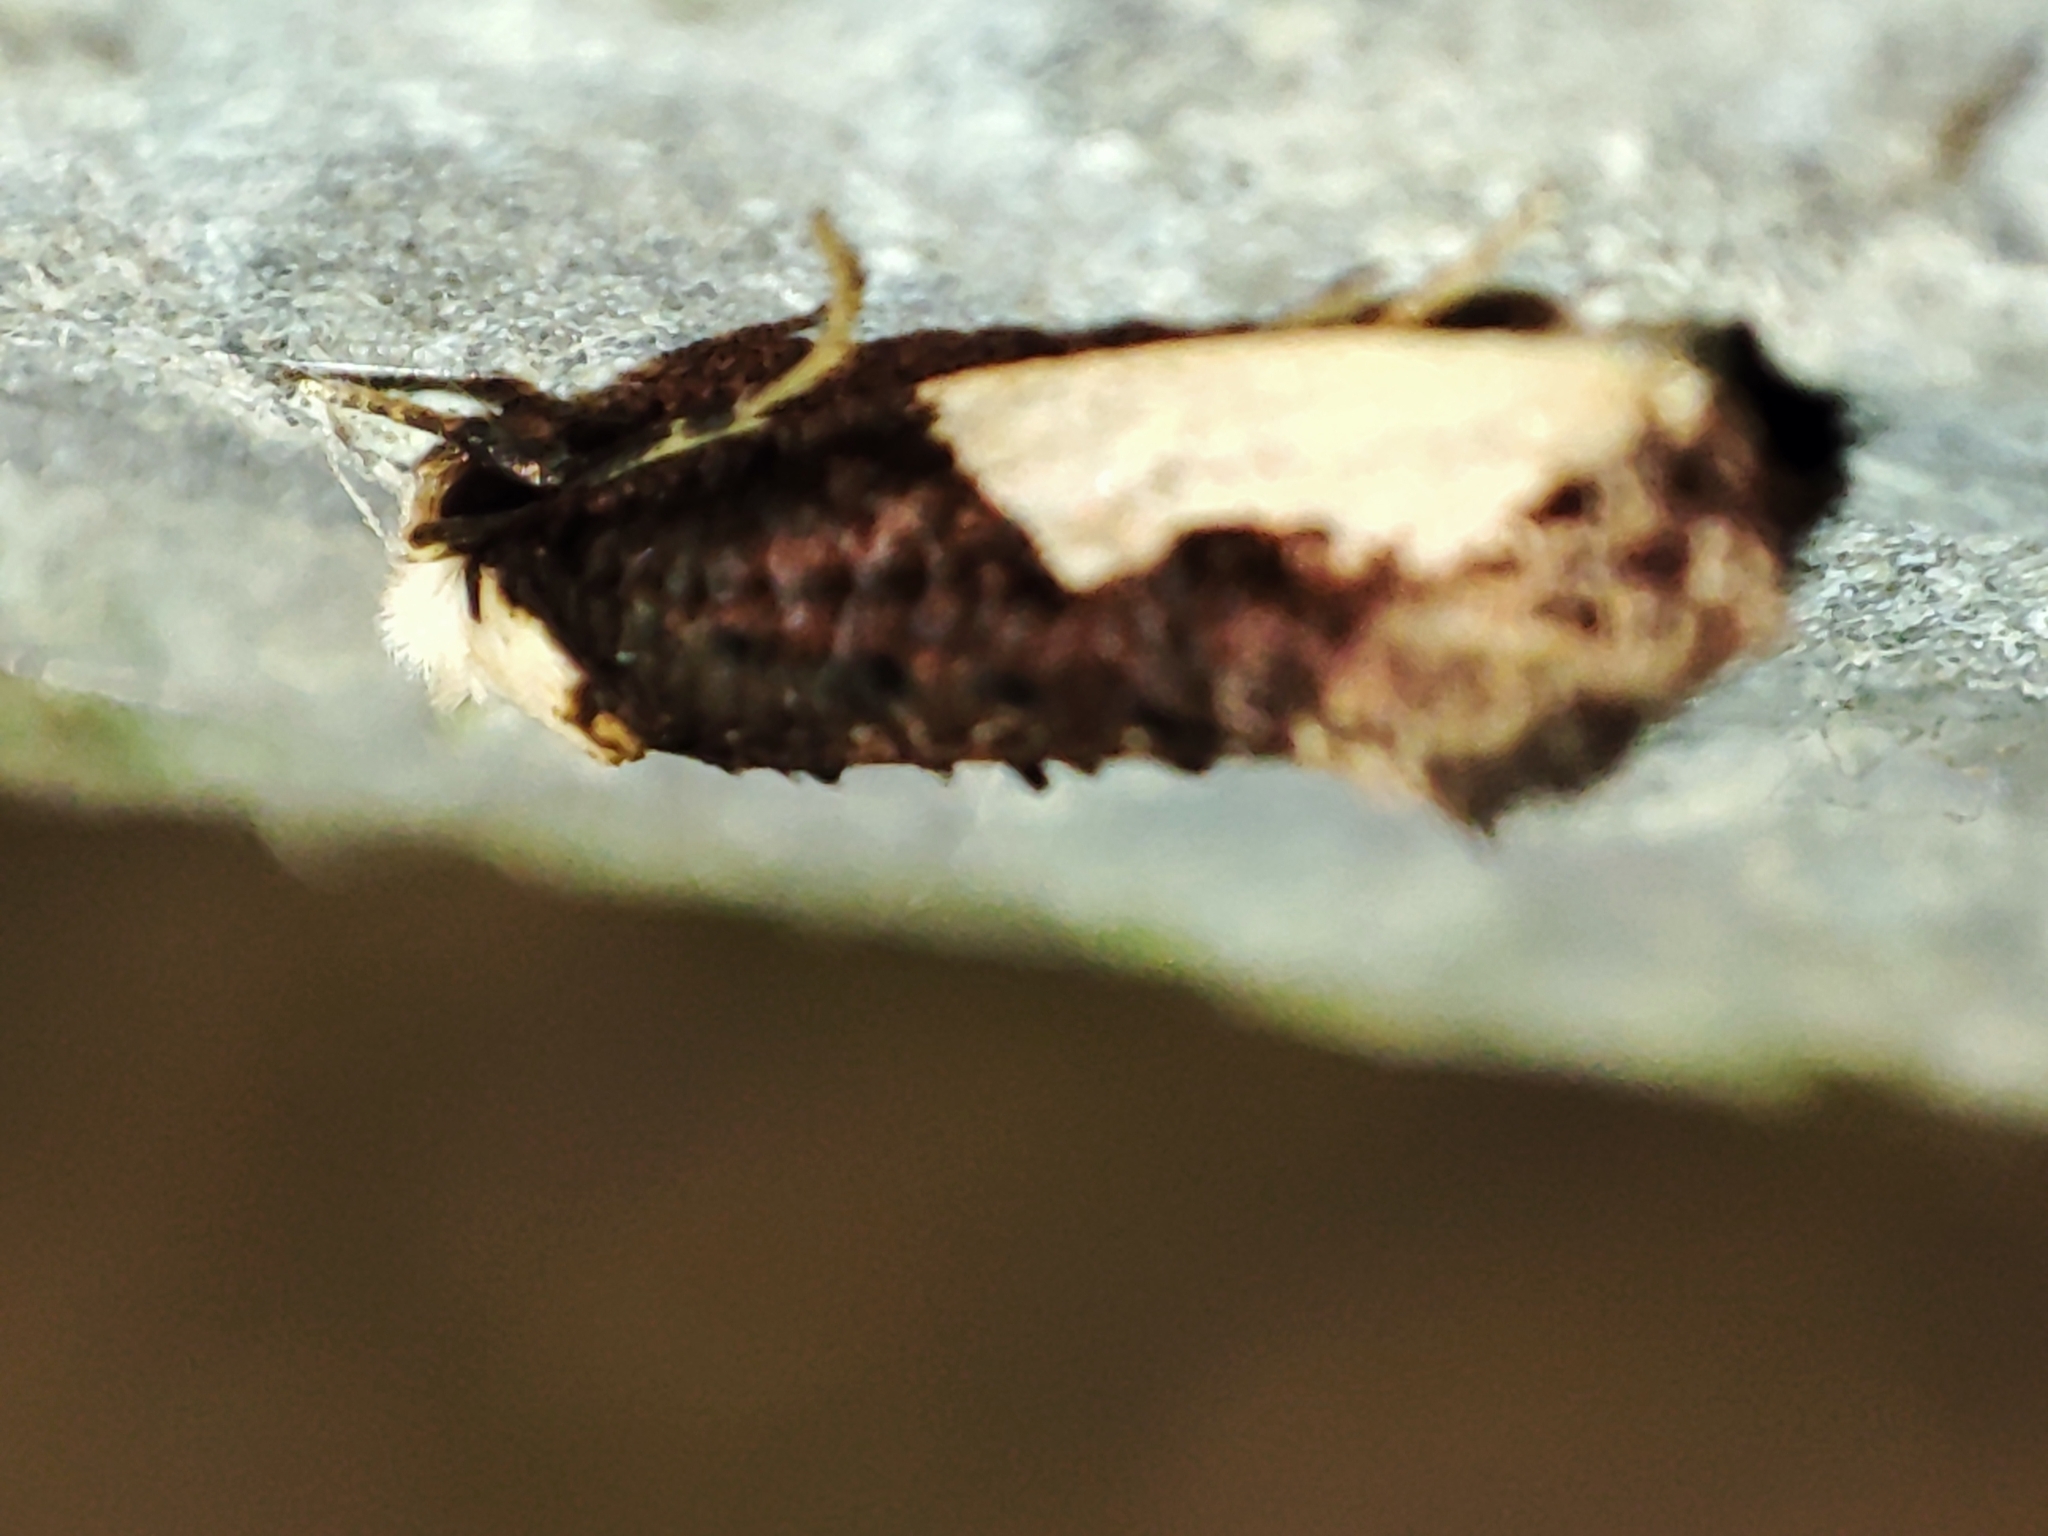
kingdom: Animalia
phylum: Arthropoda
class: Insecta
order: Lepidoptera
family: Tineidae
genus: Monopis
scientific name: Monopis monachella
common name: Moth
